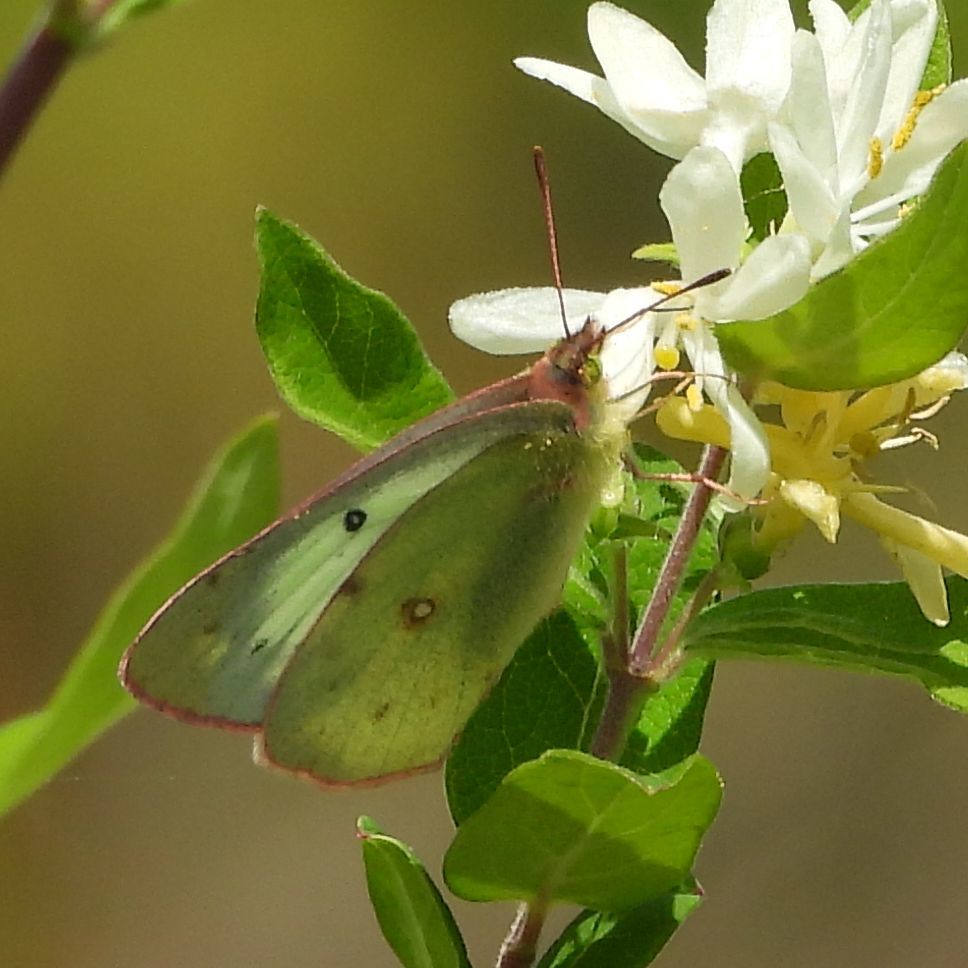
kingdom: Animalia
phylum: Arthropoda
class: Insecta
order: Lepidoptera
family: Pieridae
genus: Colias
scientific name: Colias philodice
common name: Clouded sulphur
